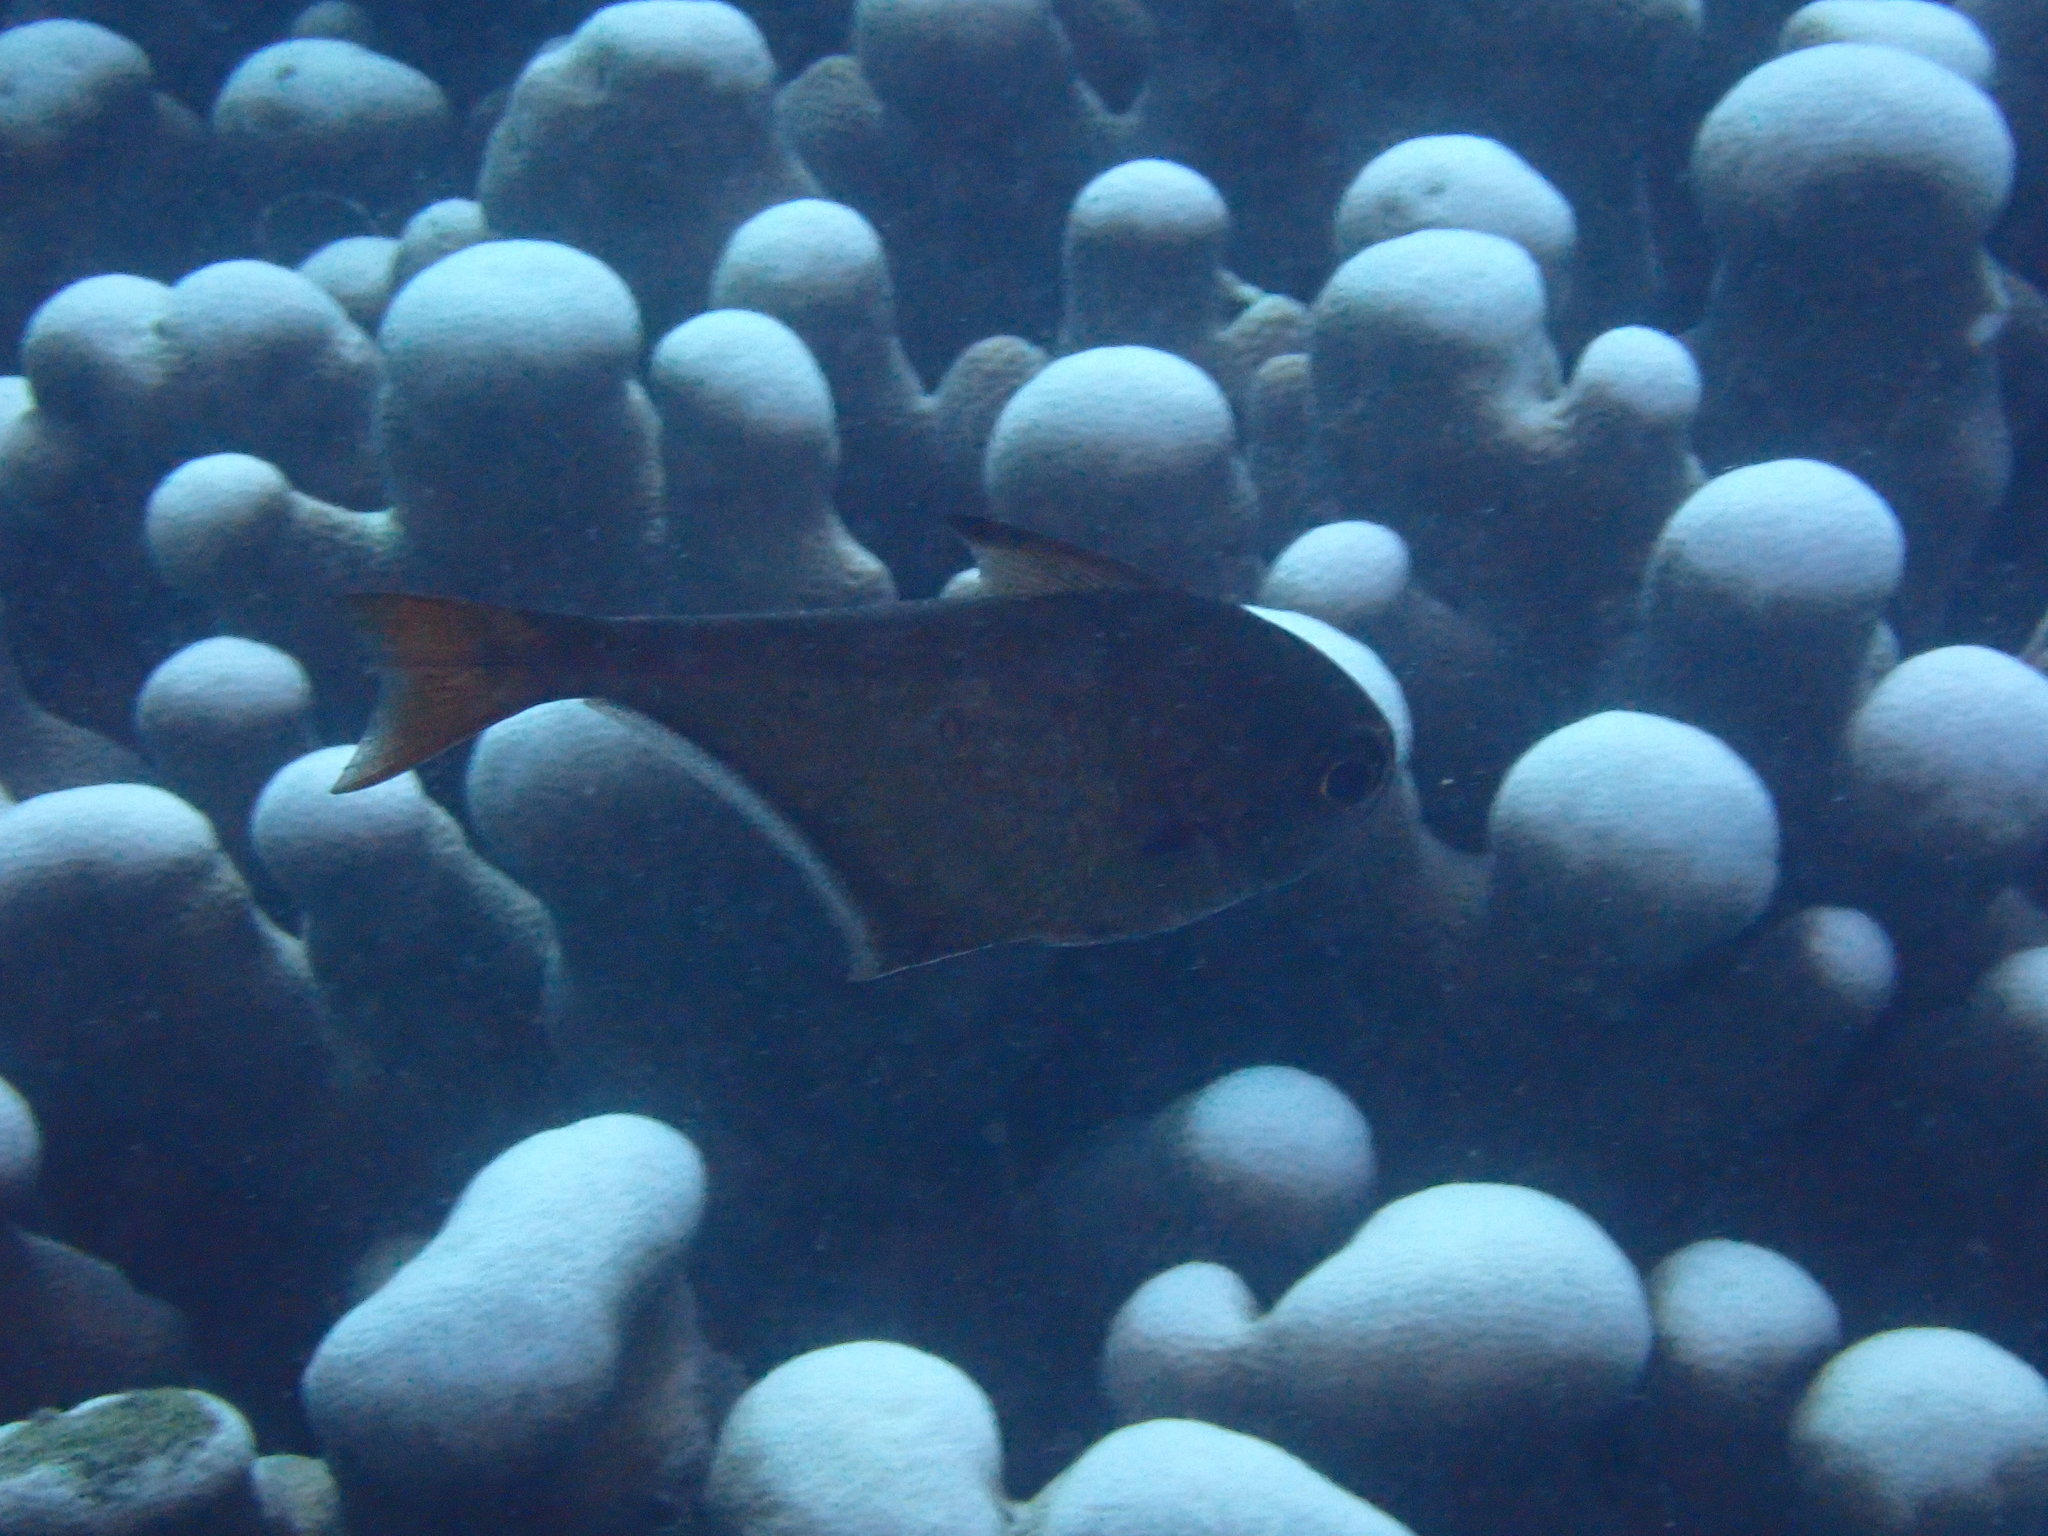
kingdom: Animalia
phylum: Chordata
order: Perciformes
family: Pempheridae
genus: Pempheris
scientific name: Pempheris oualensis
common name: Bronze sweeper
